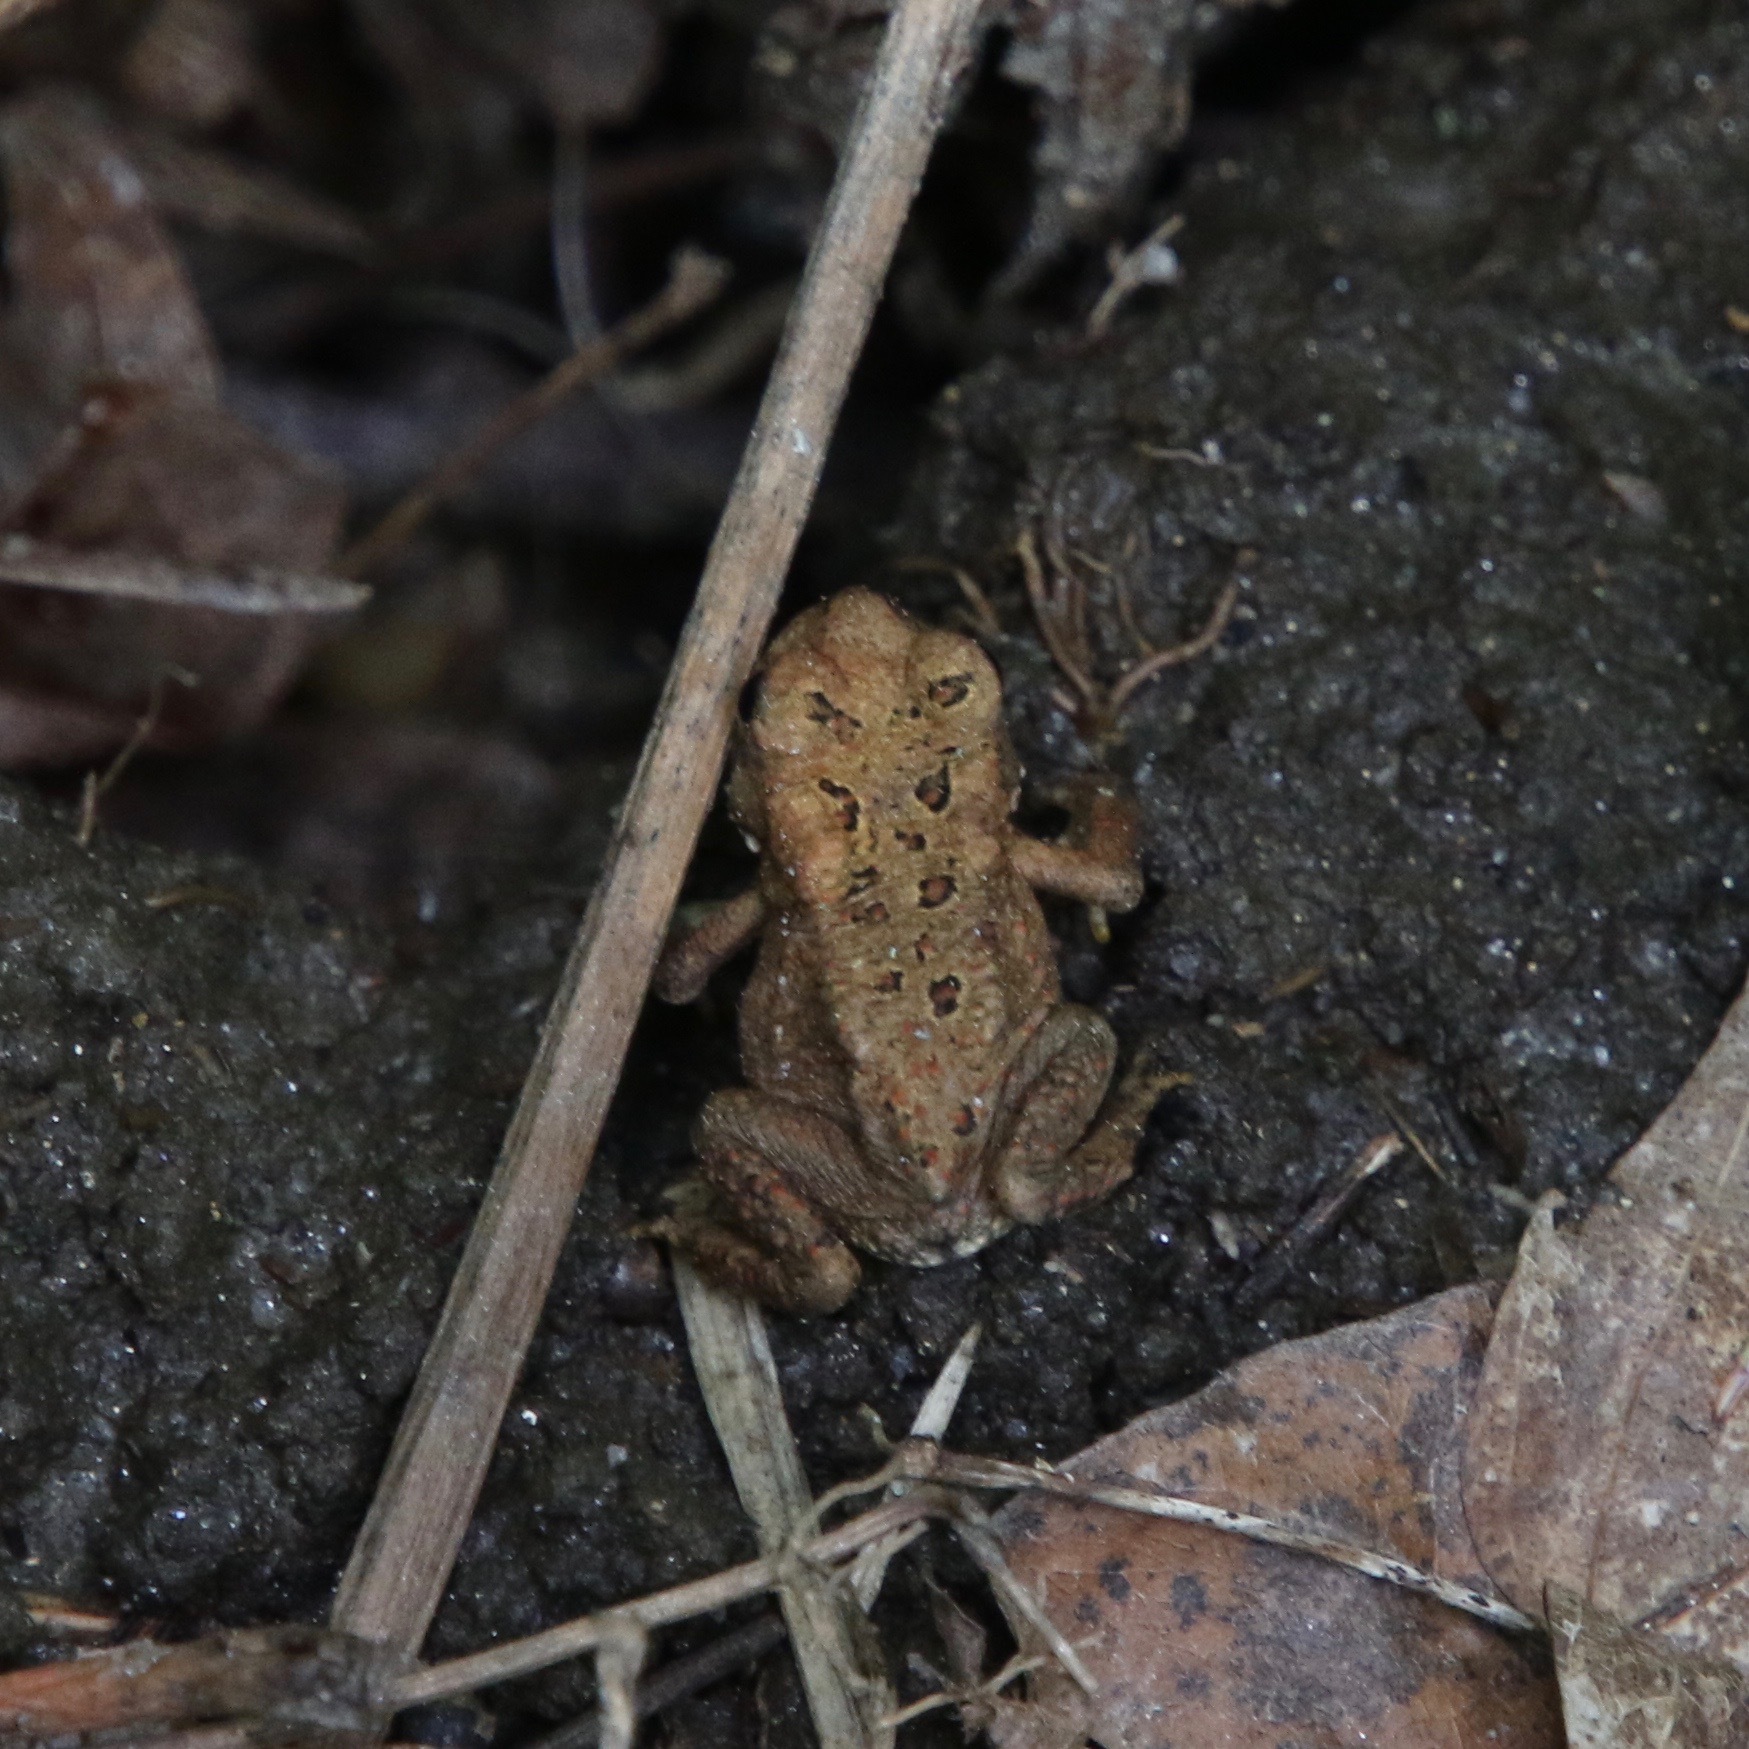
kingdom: Animalia
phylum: Chordata
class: Amphibia
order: Anura
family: Bufonidae
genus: Anaxyrus
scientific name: Anaxyrus americanus
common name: American toad
